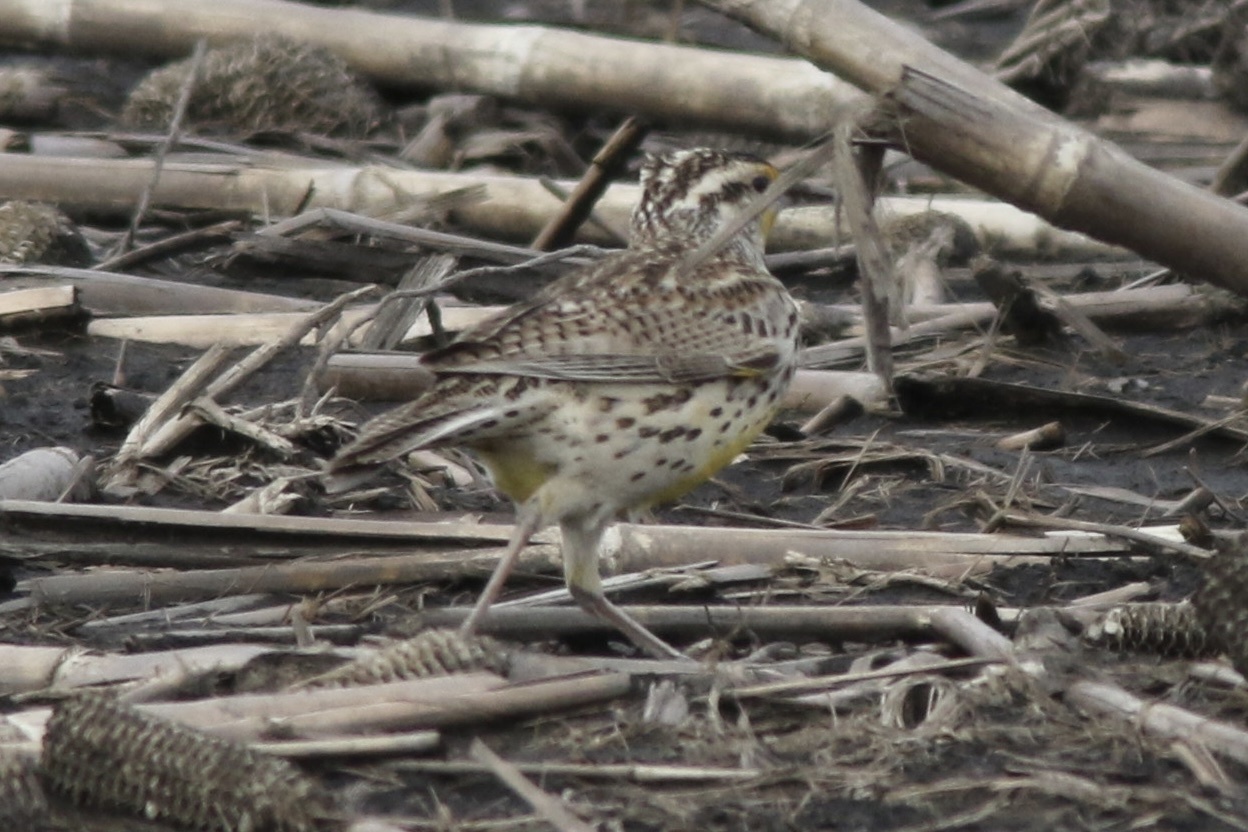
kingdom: Animalia
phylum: Chordata
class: Aves
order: Passeriformes
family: Icteridae
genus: Sturnella
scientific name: Sturnella neglecta
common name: Western meadowlark
